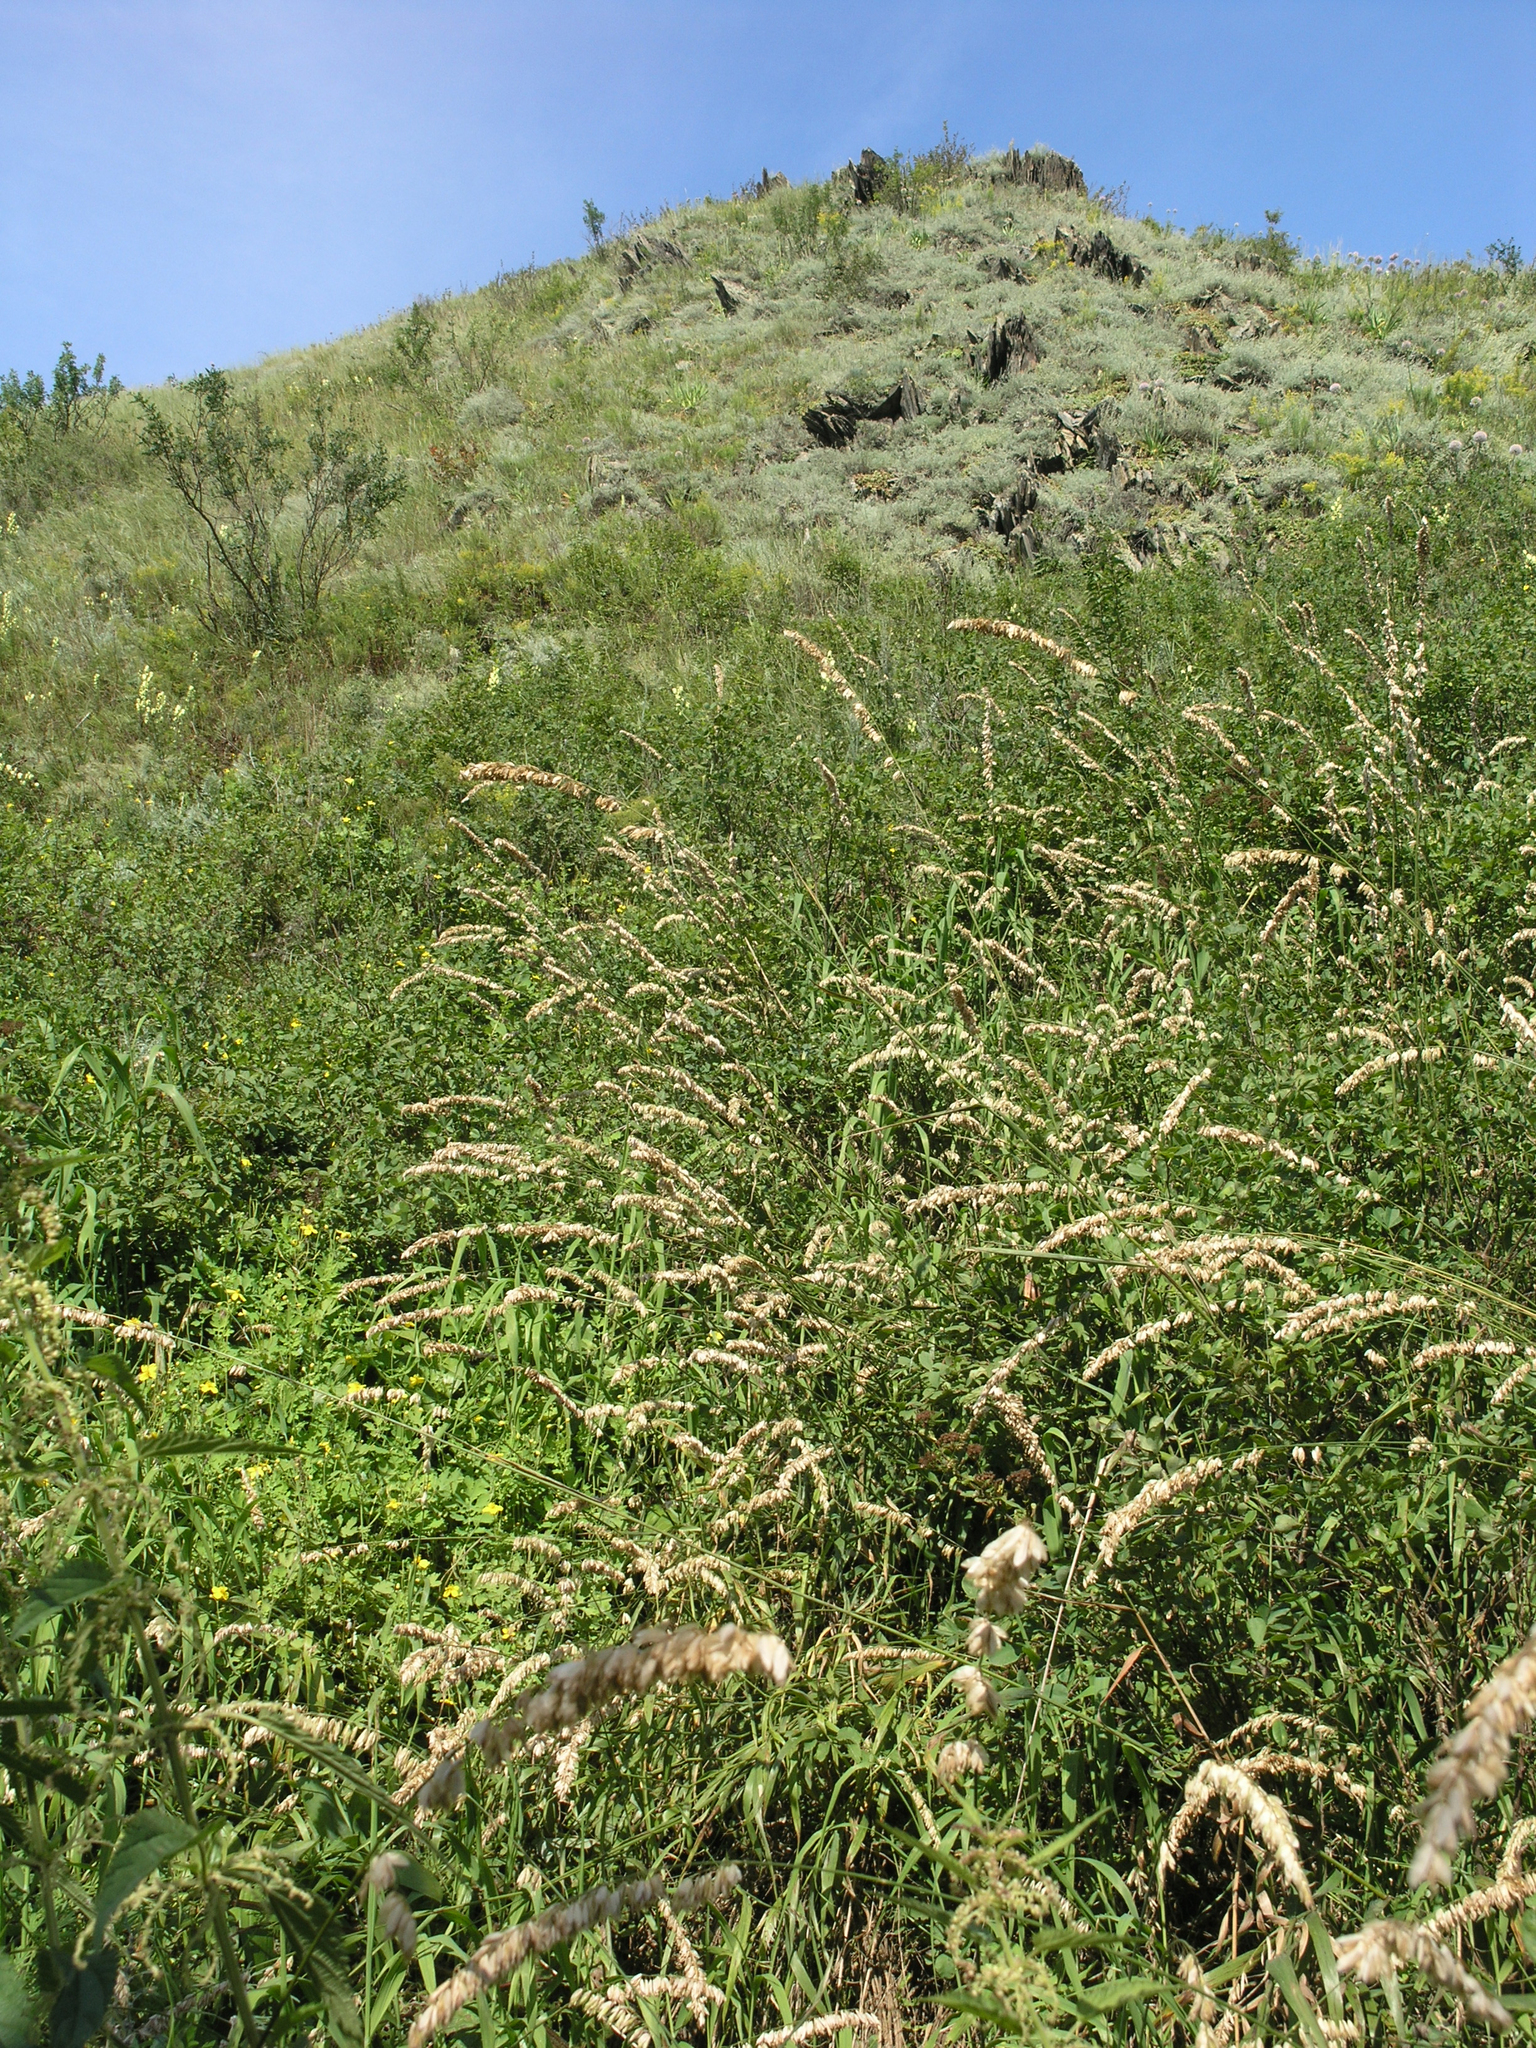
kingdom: Plantae
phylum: Tracheophyta
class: Liliopsida
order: Poales
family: Poaceae
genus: Melica
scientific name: Melica altissima
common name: Siberian melicgrass
